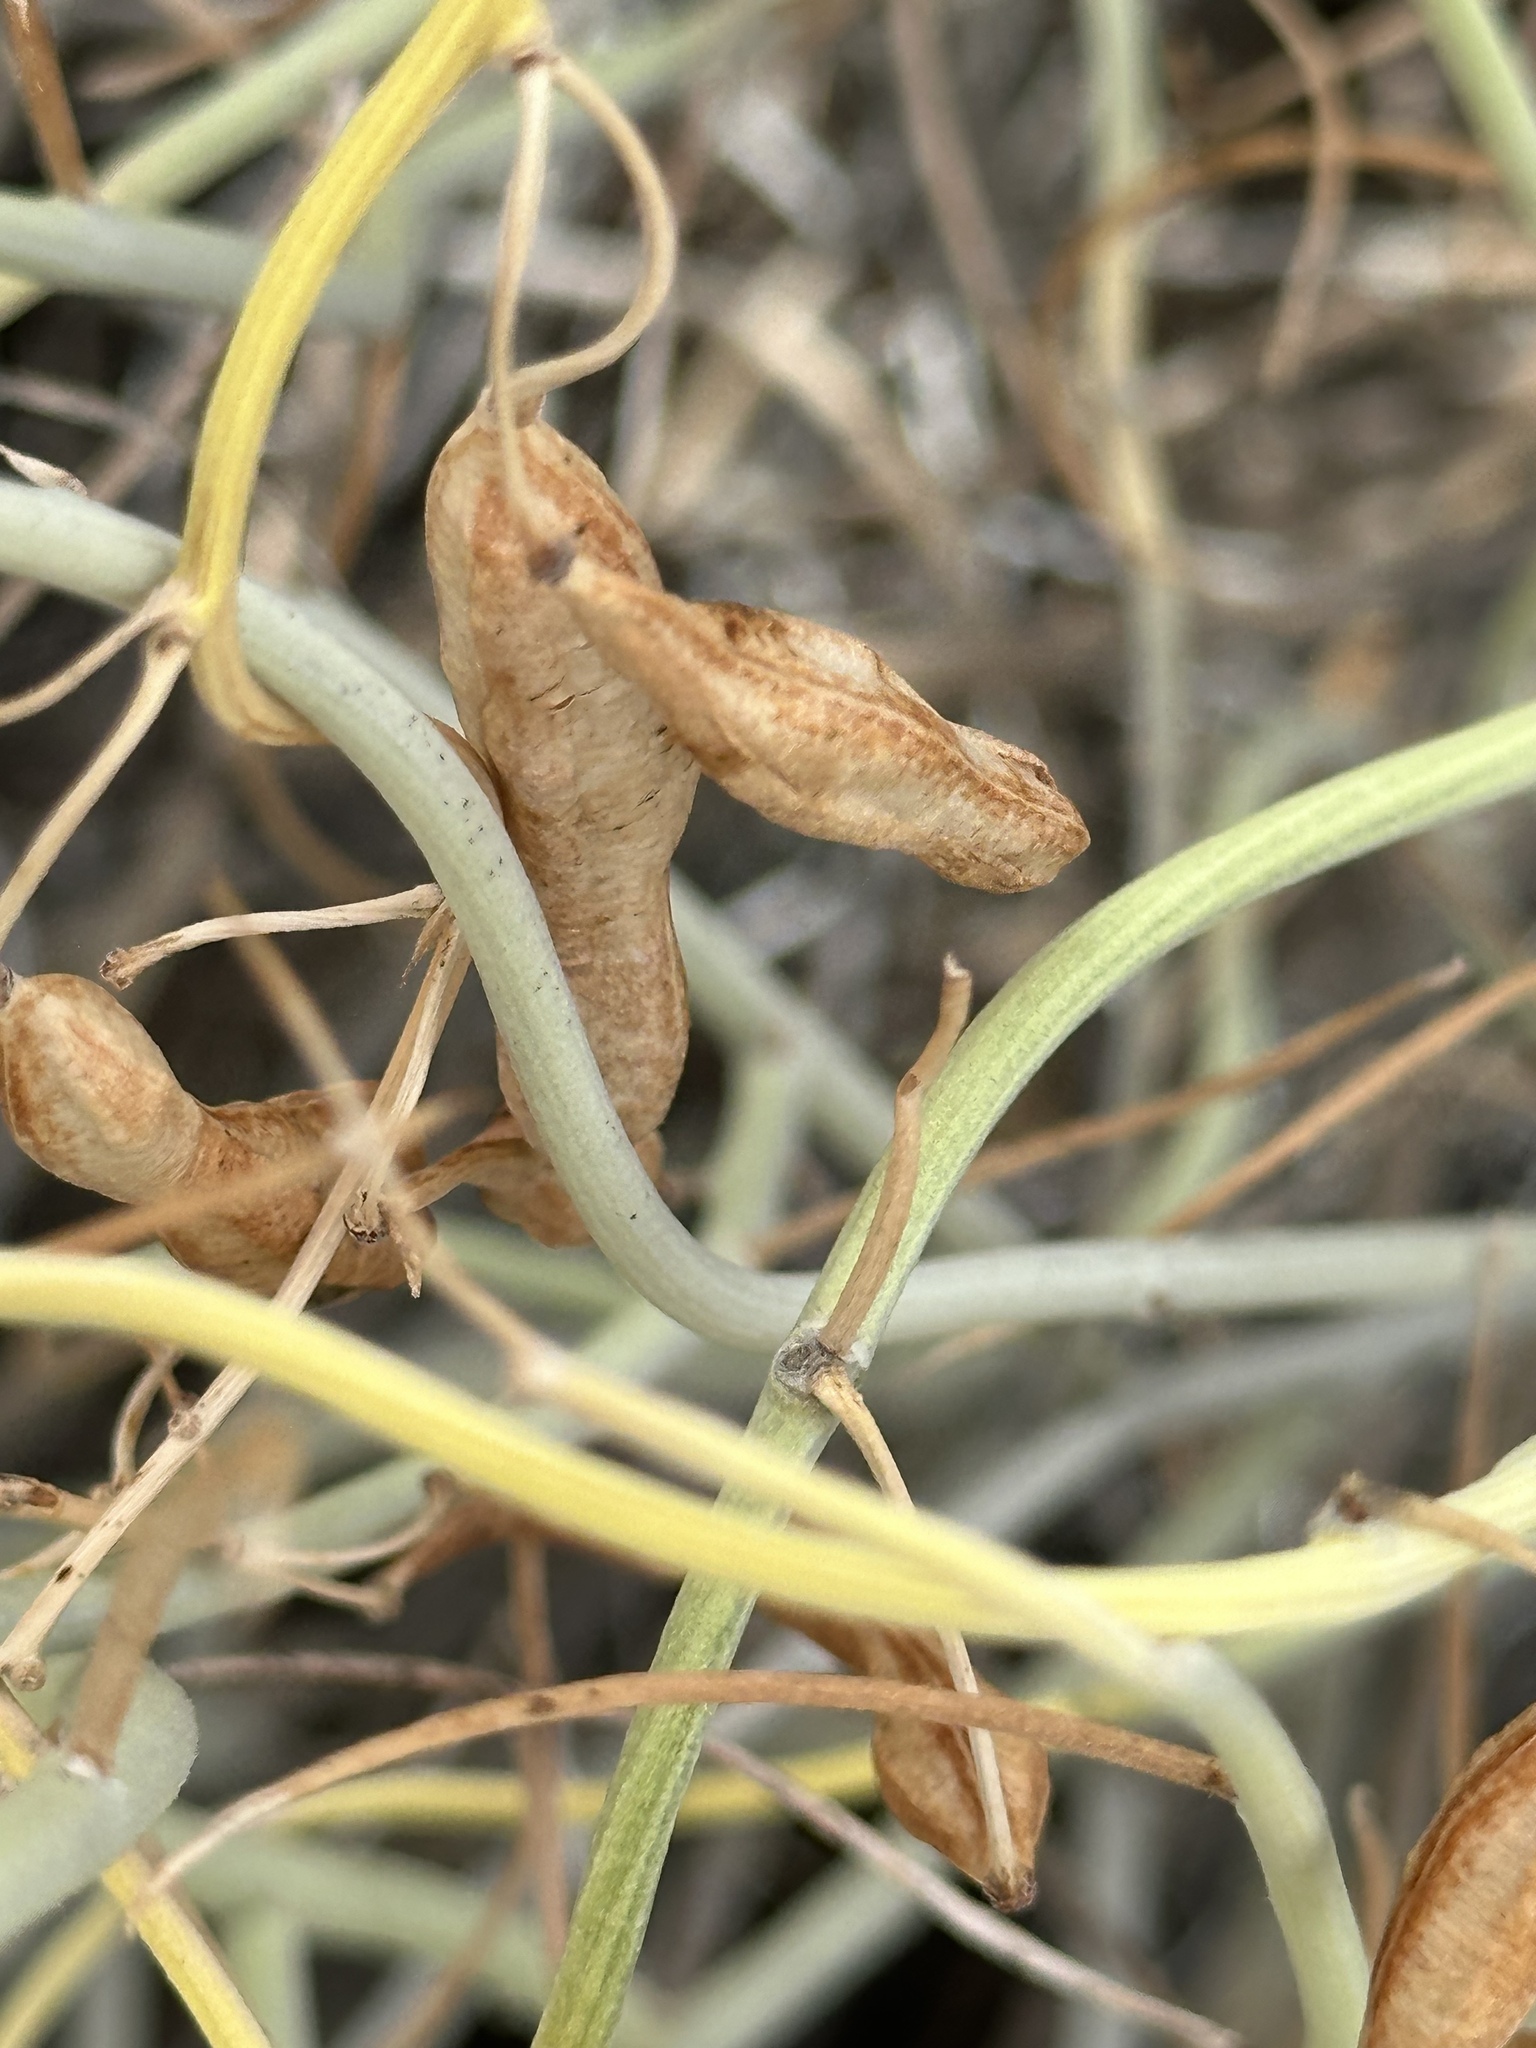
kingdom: Plantae
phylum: Tracheophyta
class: Magnoliopsida
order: Fabales
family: Fabaceae
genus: Senna
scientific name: Senna armata
